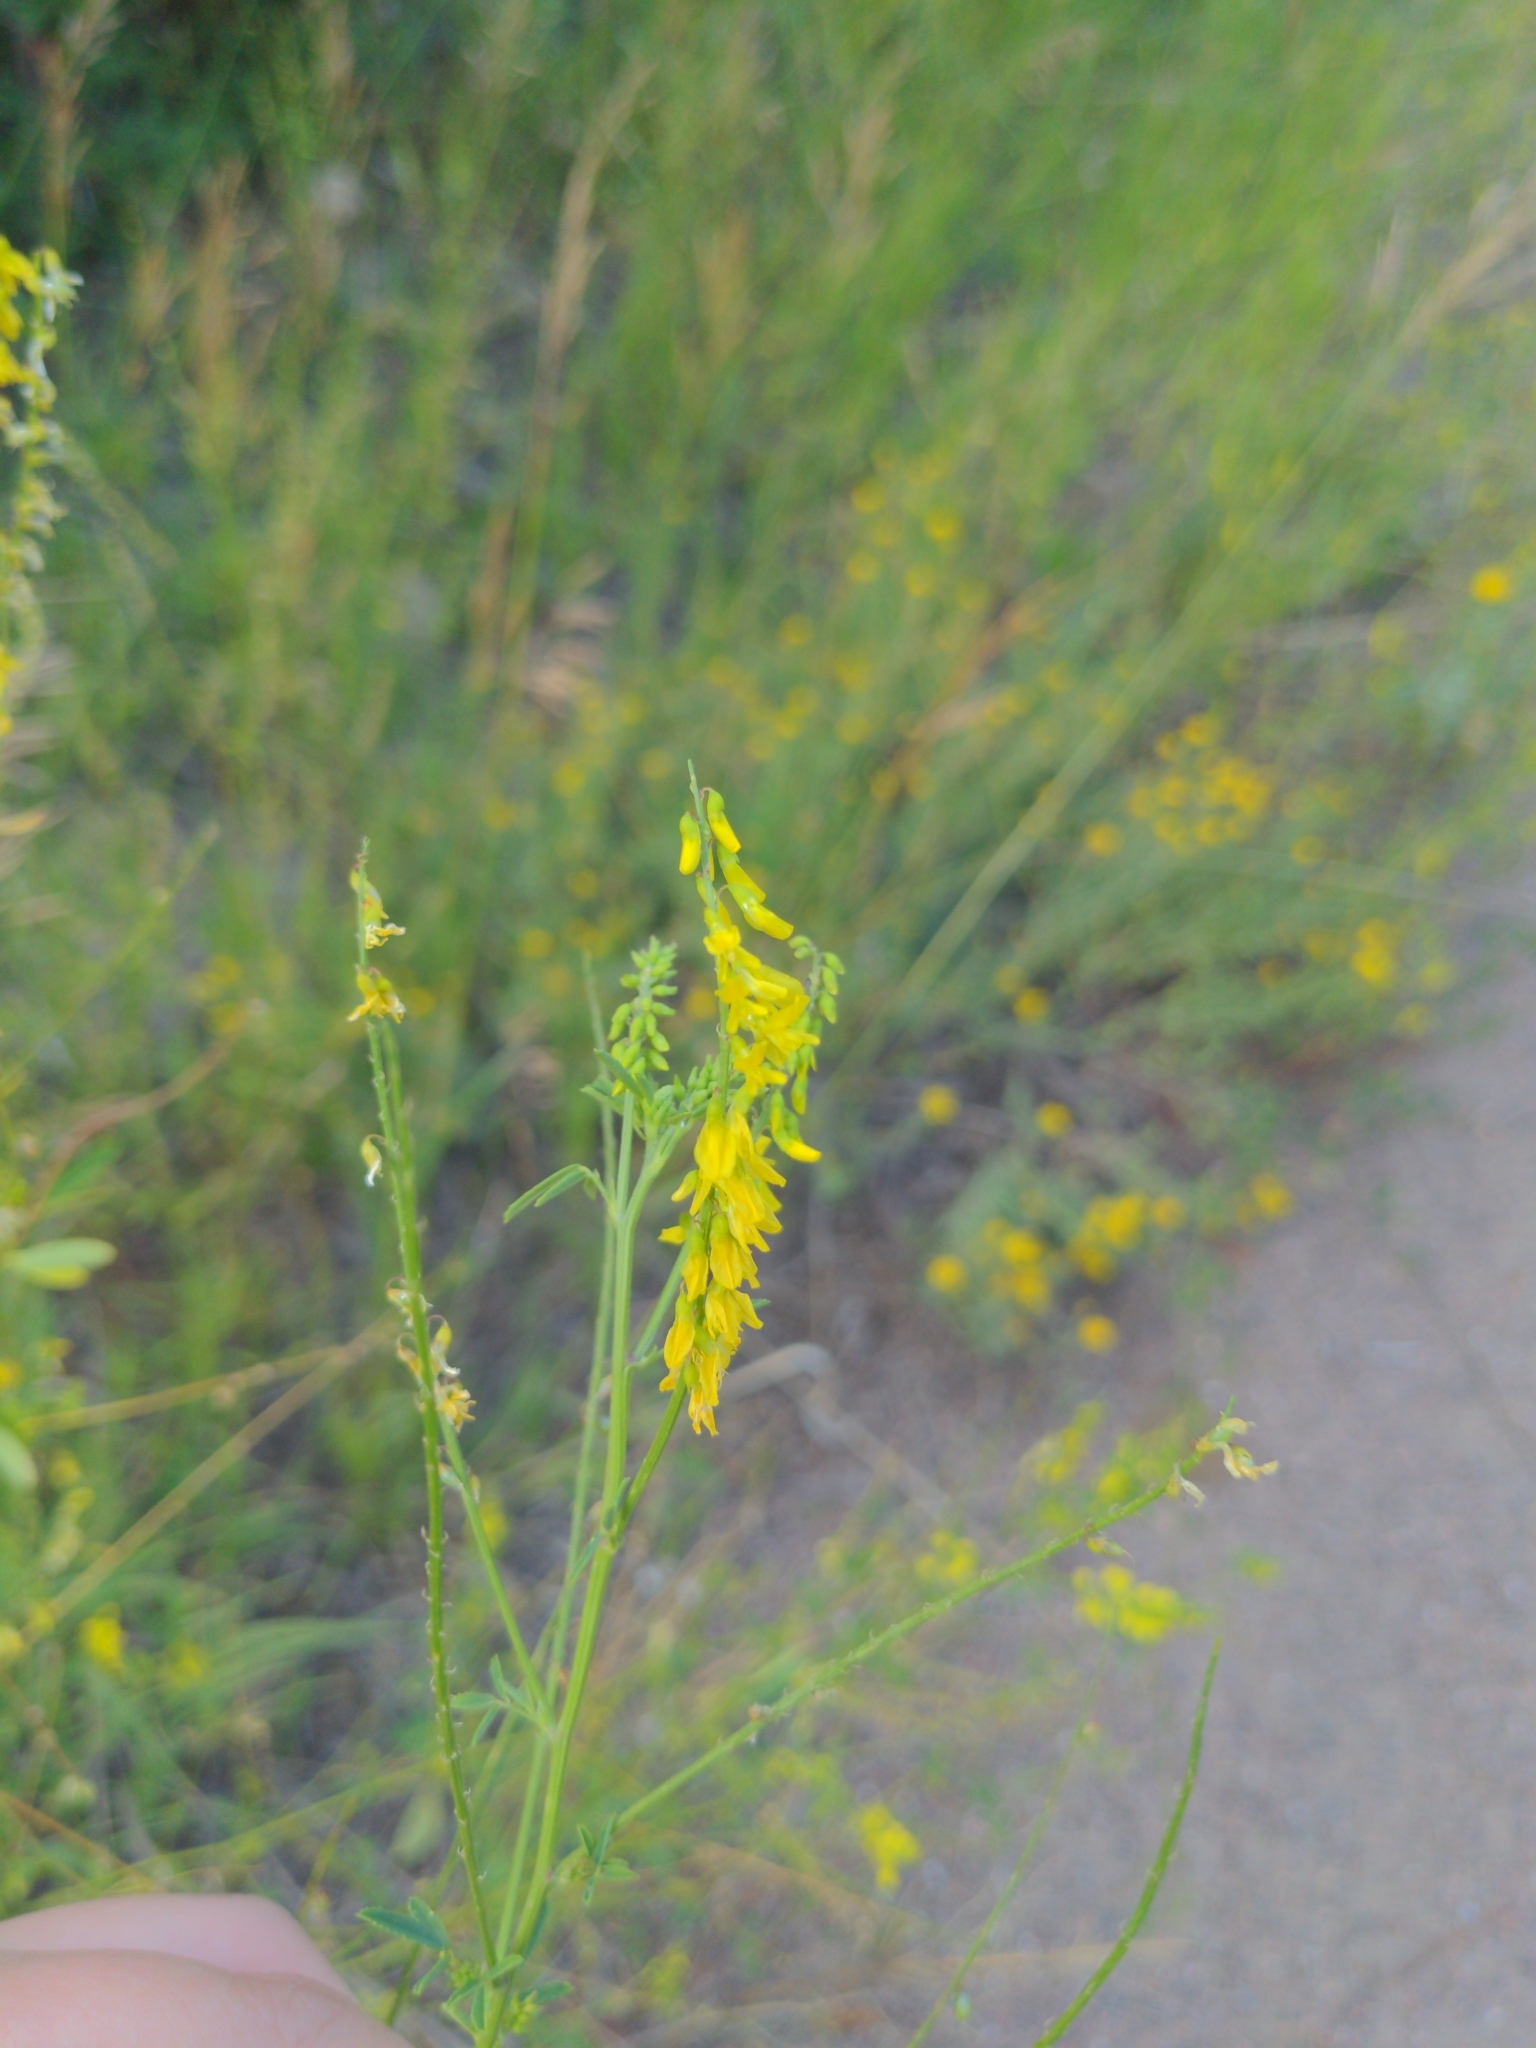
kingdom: Plantae
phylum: Tracheophyta
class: Magnoliopsida
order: Fabales
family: Fabaceae
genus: Melilotus
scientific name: Melilotus officinalis
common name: Sweetclover
